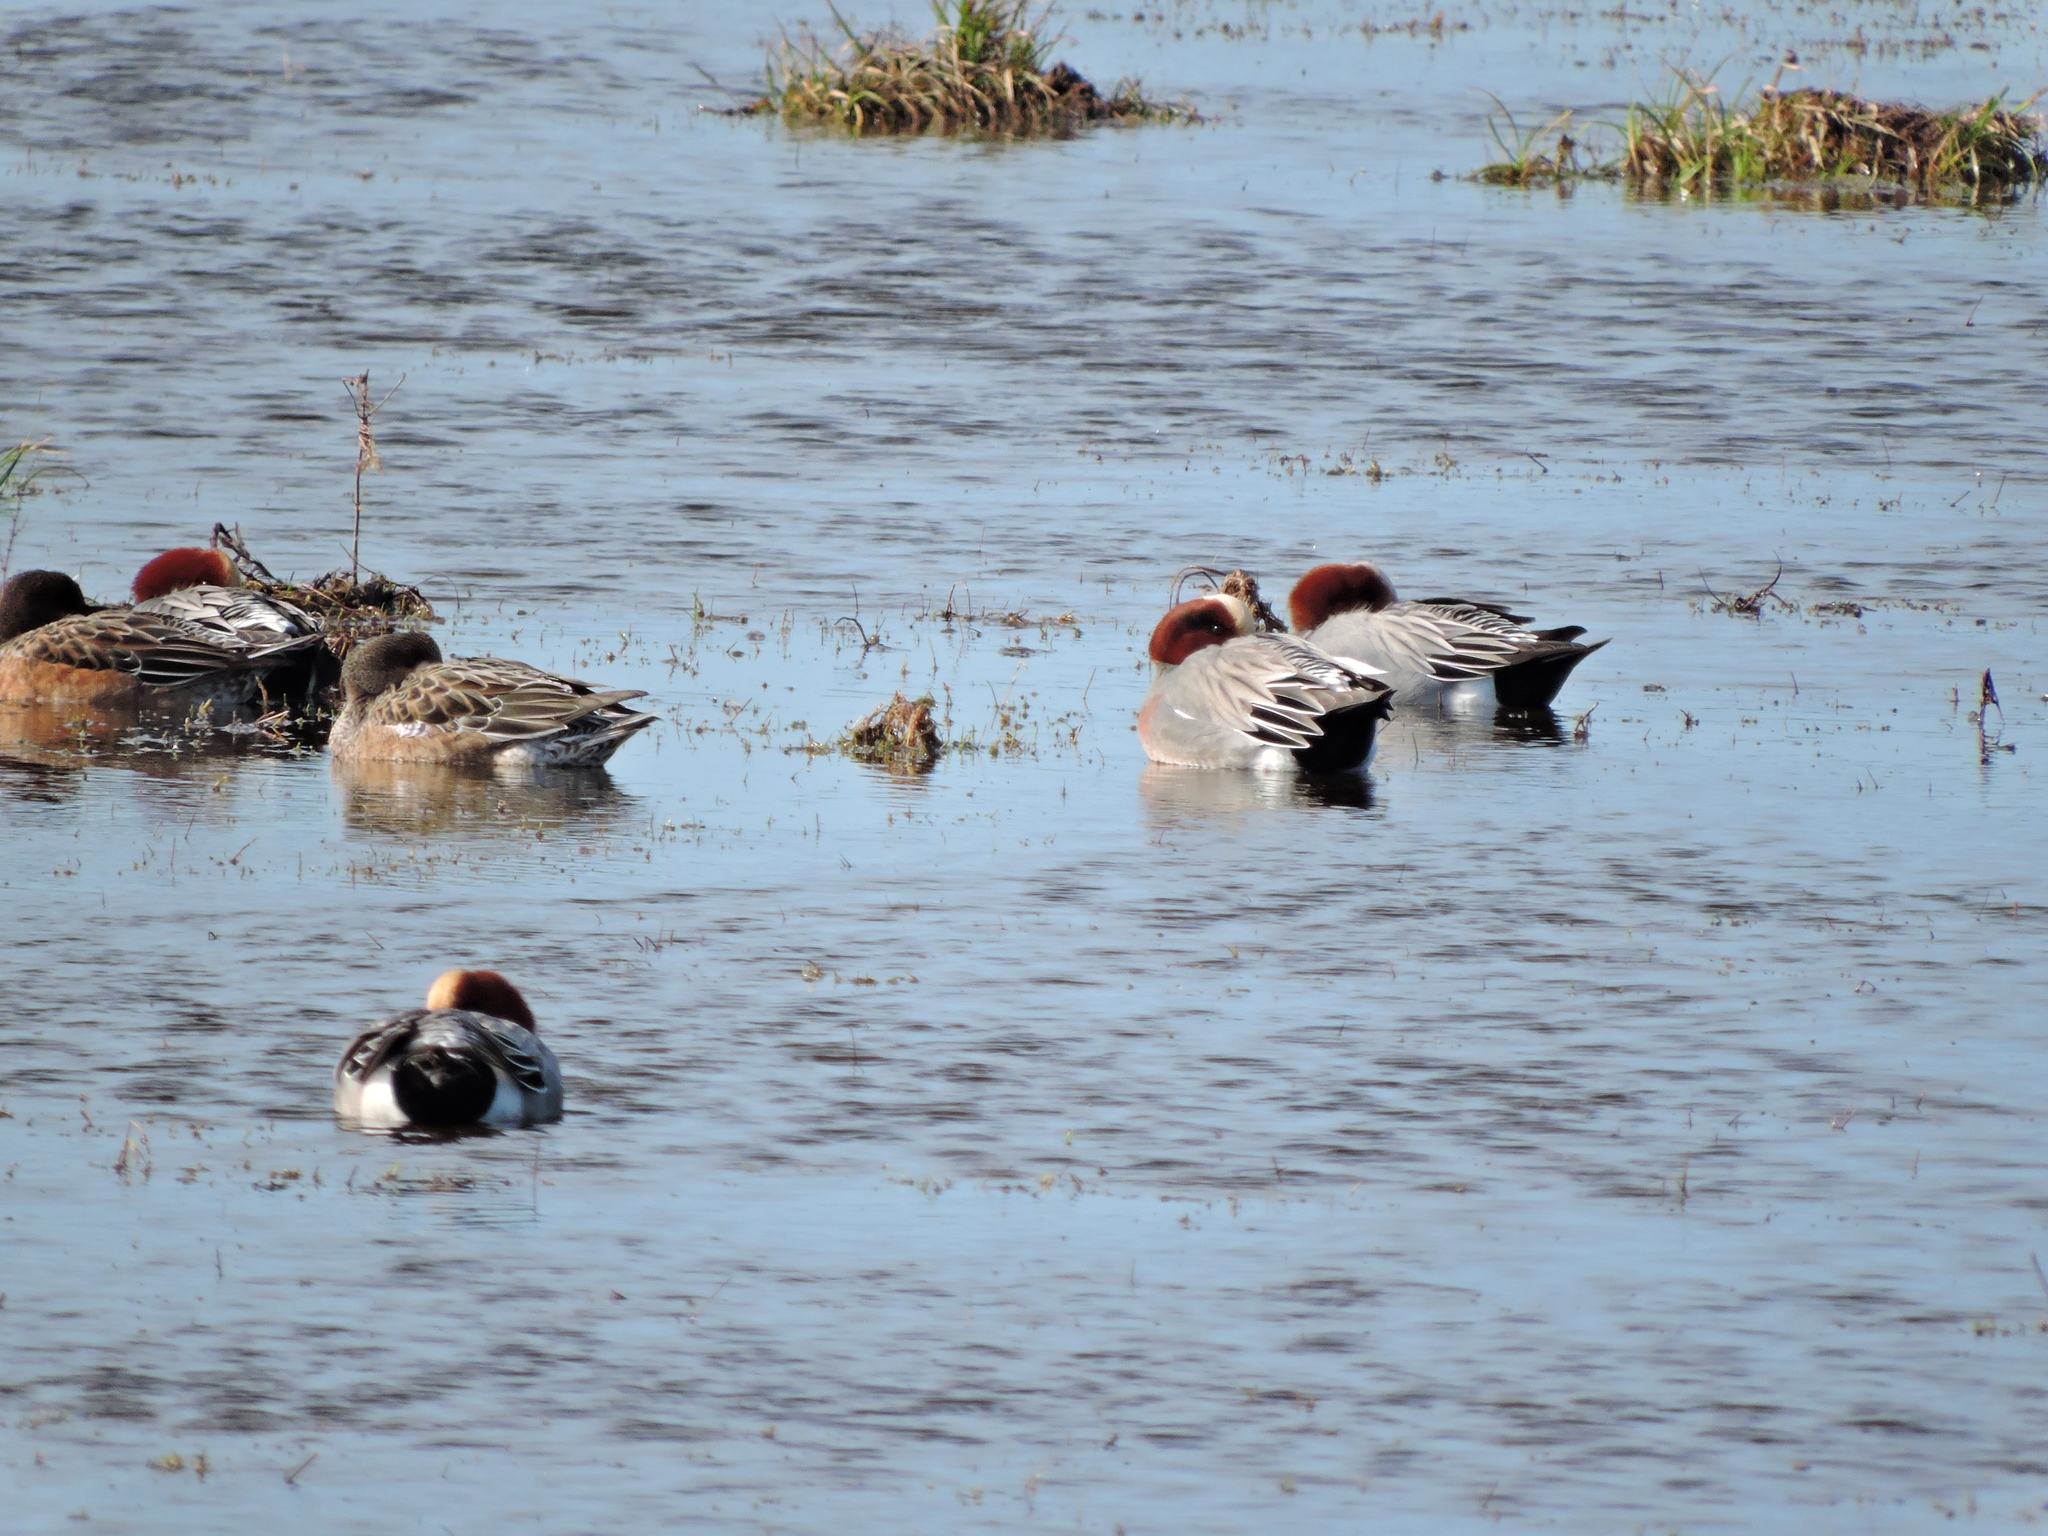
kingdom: Animalia
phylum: Chordata
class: Aves
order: Anseriformes
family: Anatidae
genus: Mareca
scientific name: Mareca penelope
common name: Eurasian wigeon
